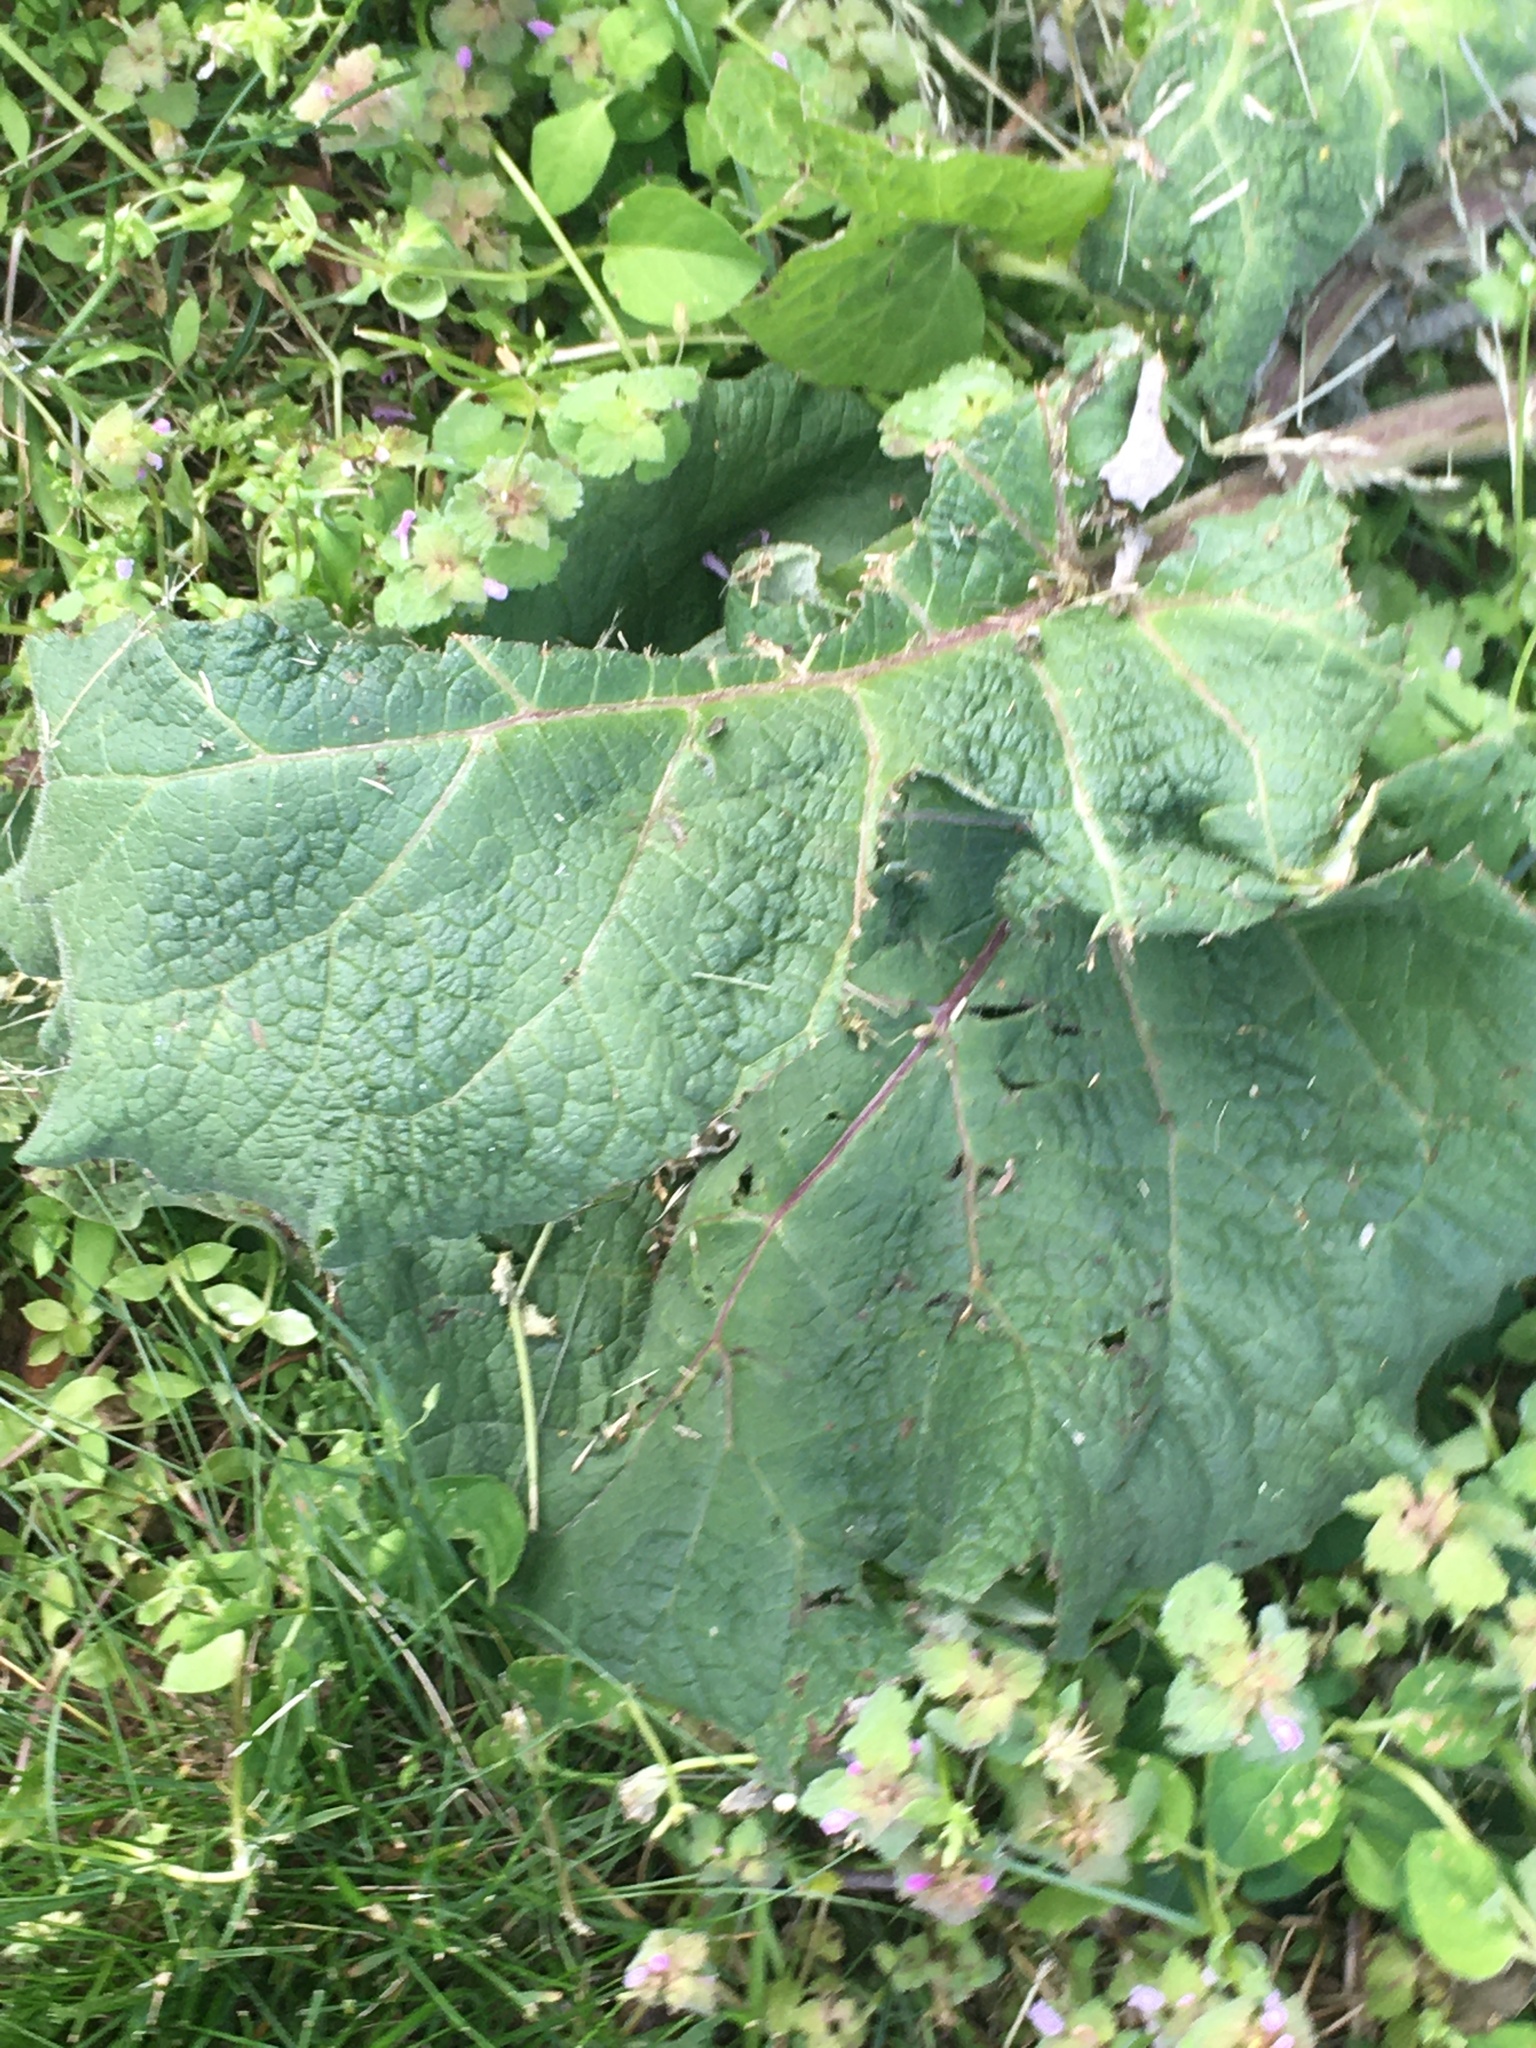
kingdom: Plantae
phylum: Tracheophyta
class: Magnoliopsida
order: Asterales
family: Asteraceae
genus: Arctium
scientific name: Arctium
